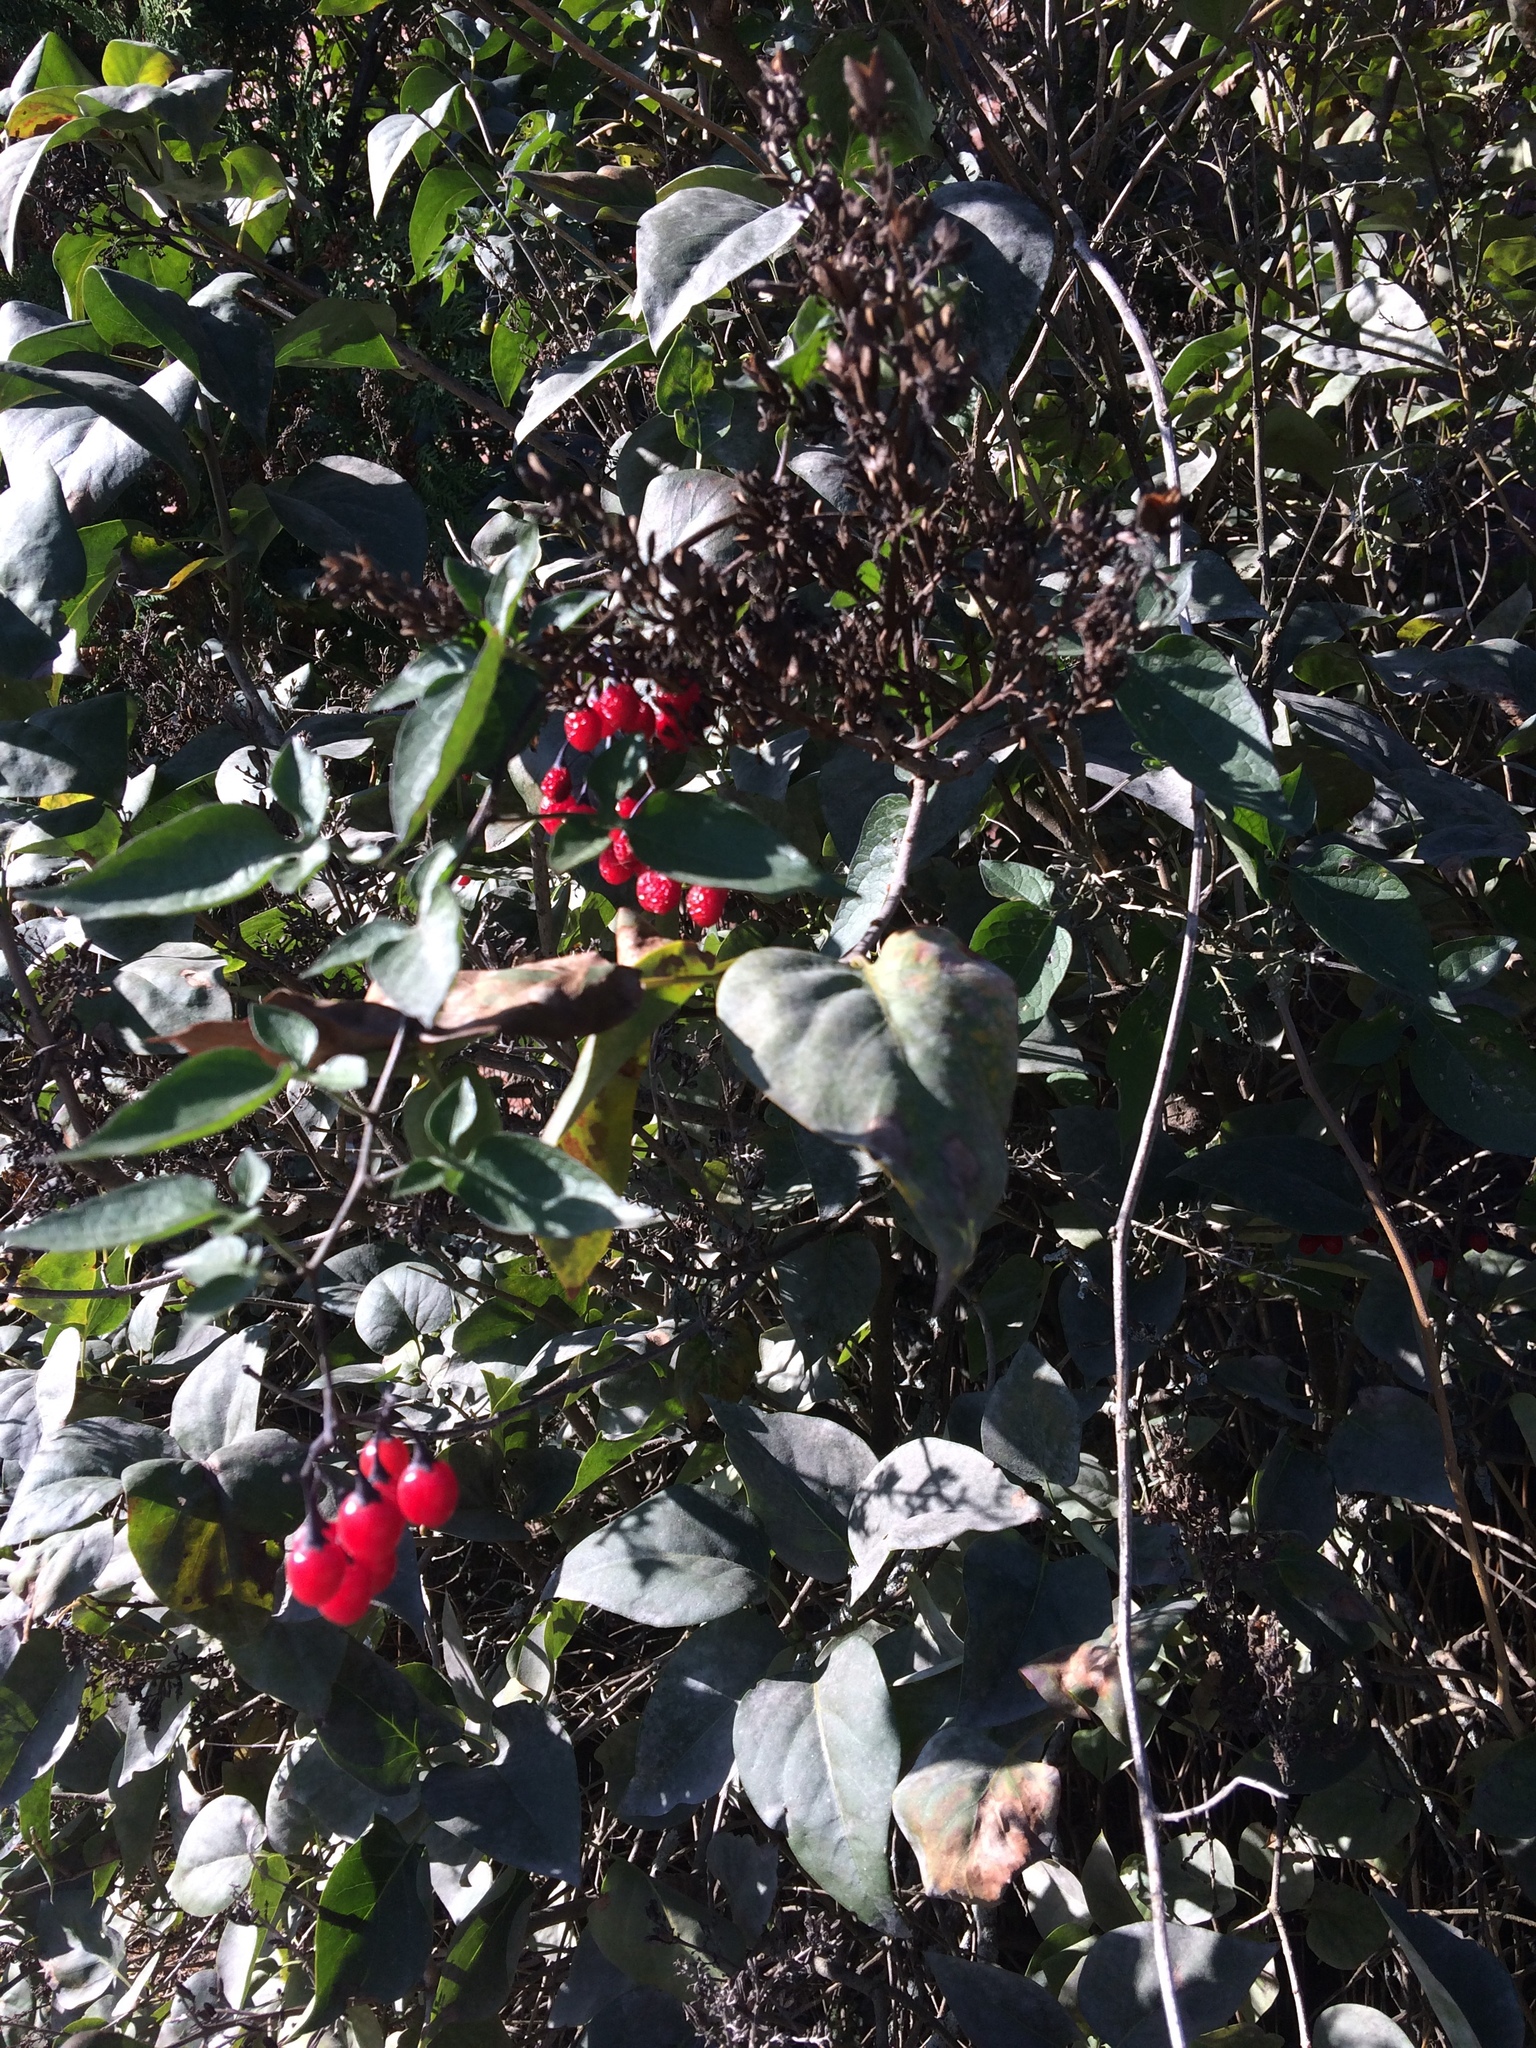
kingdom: Plantae
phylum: Tracheophyta
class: Magnoliopsida
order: Solanales
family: Solanaceae
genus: Solanum
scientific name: Solanum dulcamara
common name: Climbing nightshade
